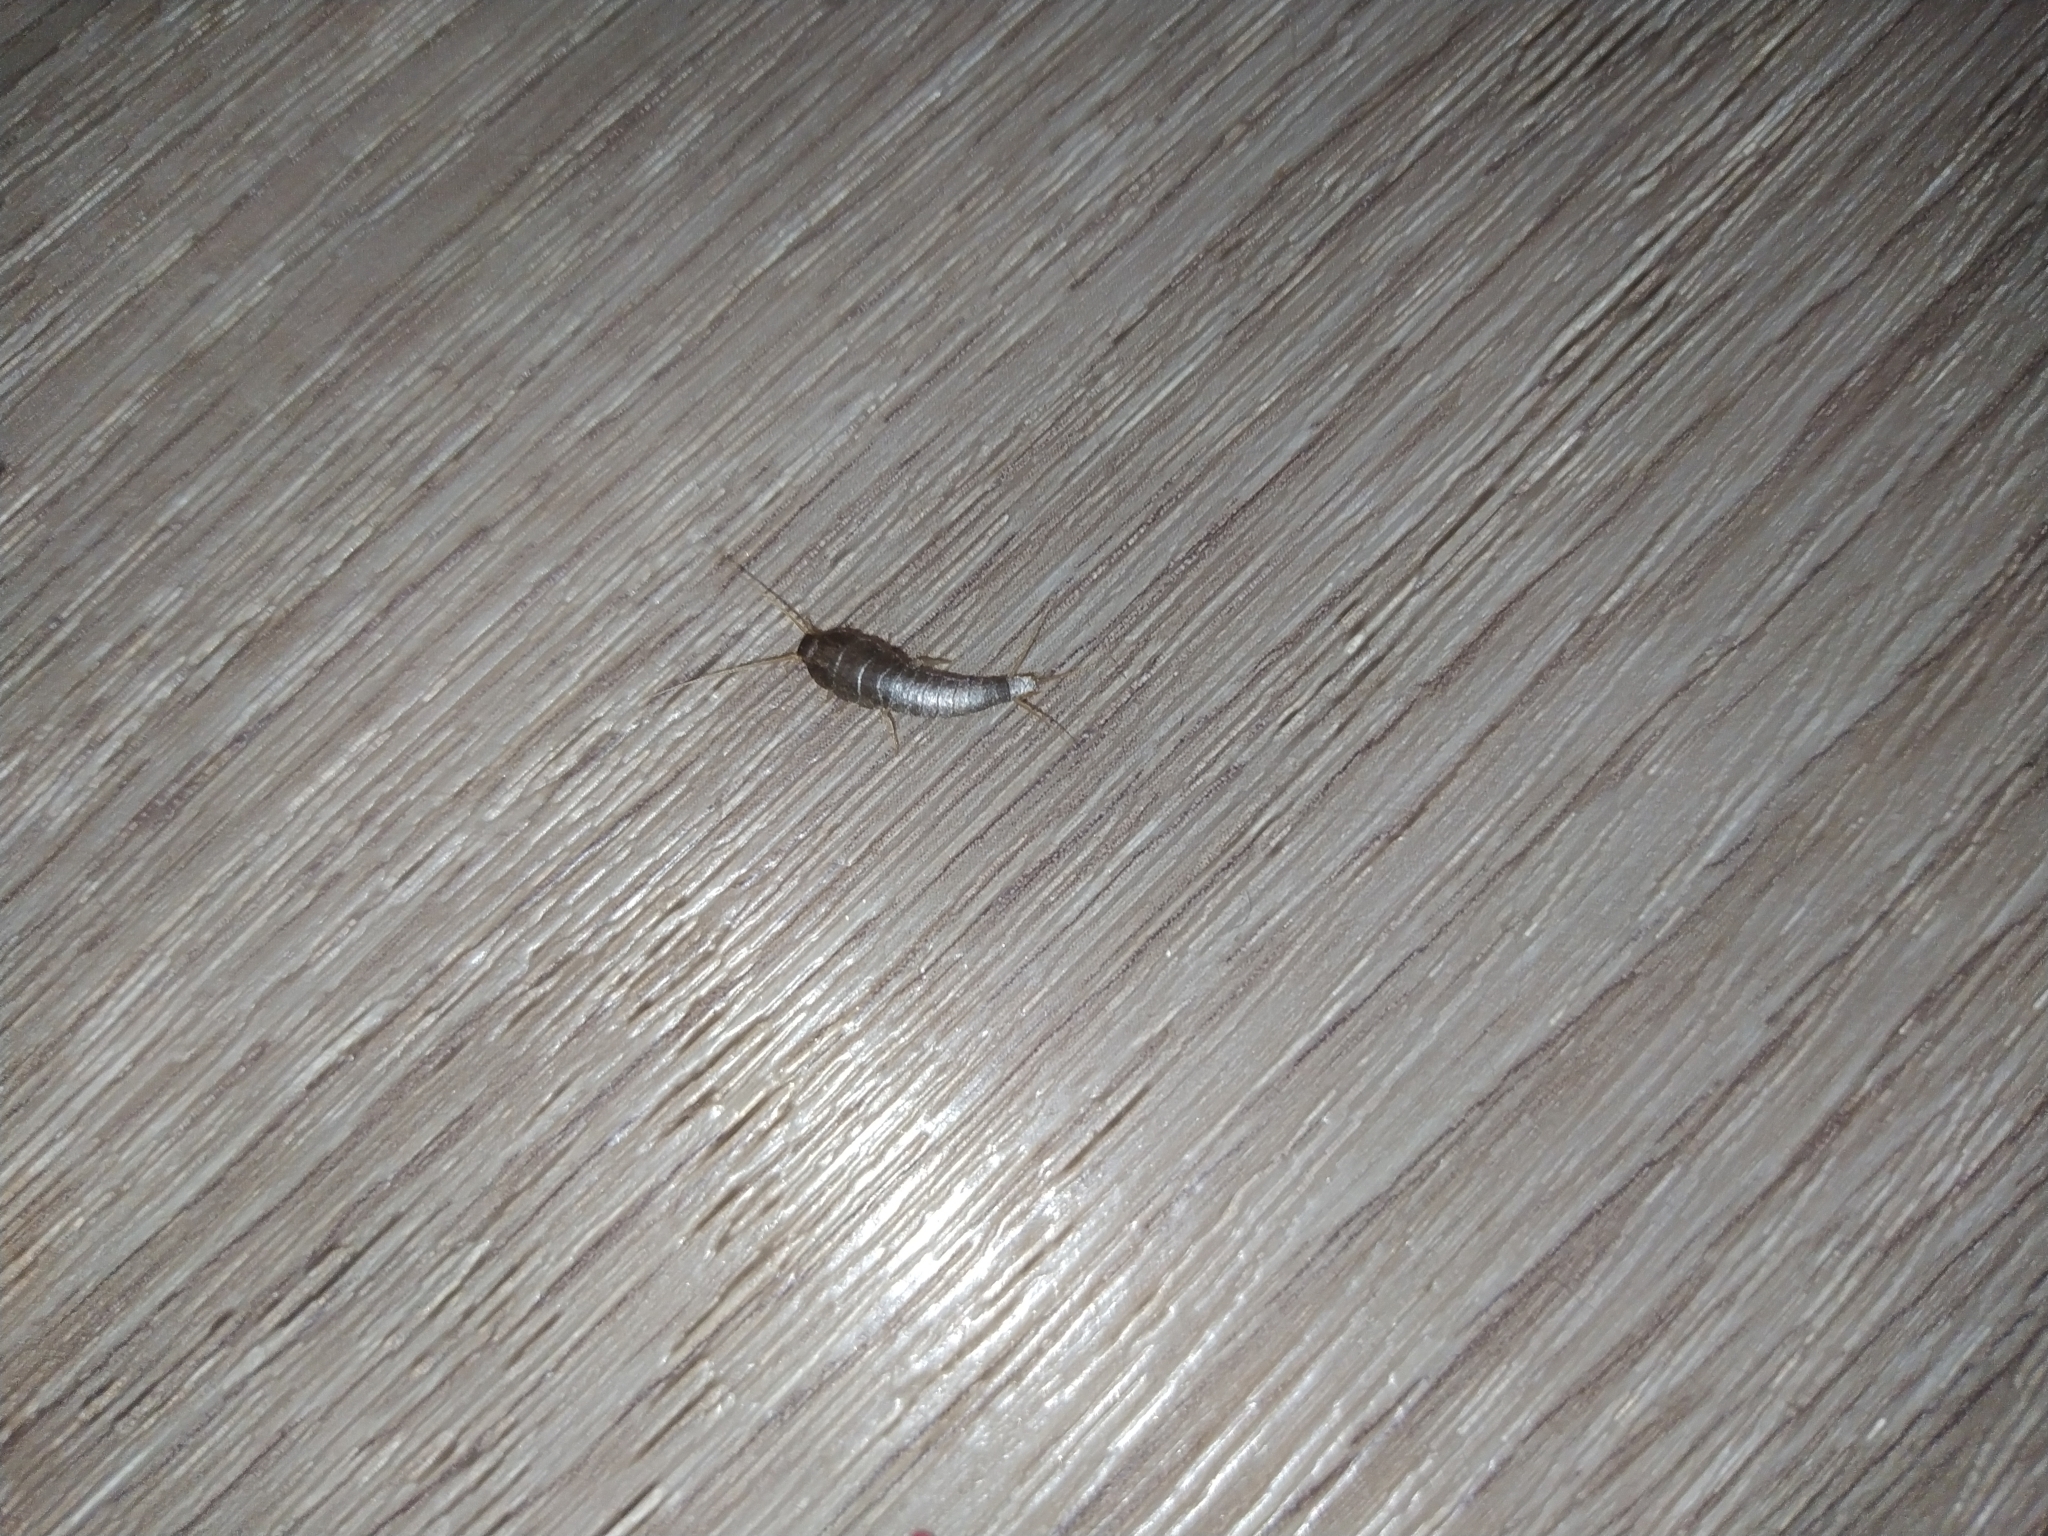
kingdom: Animalia
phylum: Arthropoda
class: Insecta
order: Zygentoma
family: Lepismatidae
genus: Lepisma
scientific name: Lepisma saccharinum
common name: Silverfish
